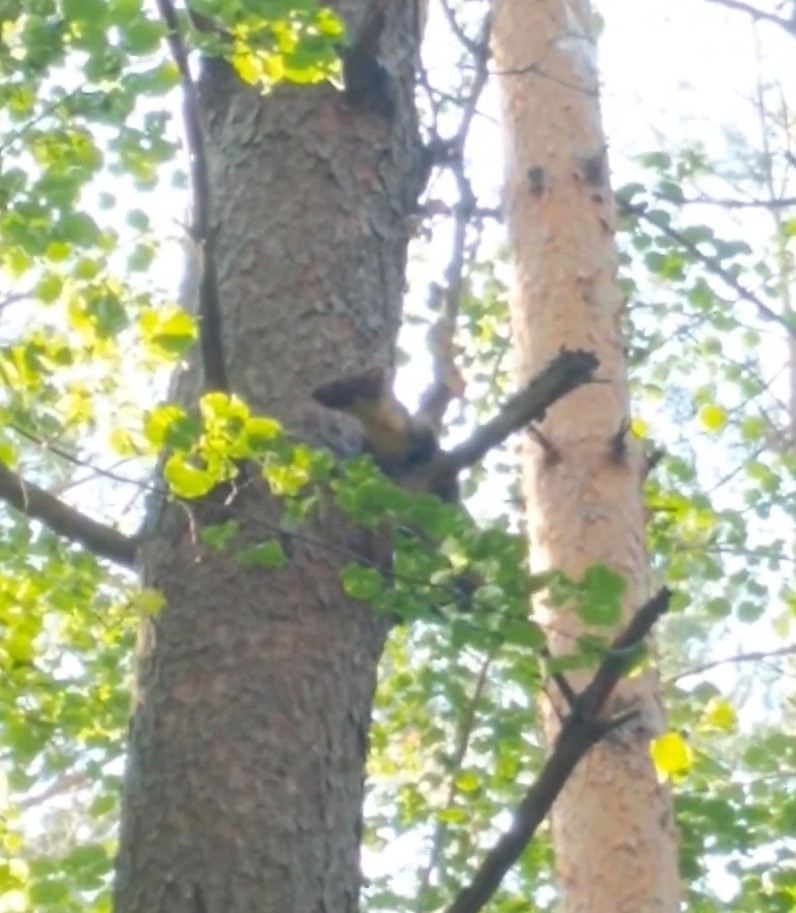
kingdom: Animalia
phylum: Chordata
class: Mammalia
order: Carnivora
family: Mustelidae
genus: Martes
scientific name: Martes martes
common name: European pine marten
